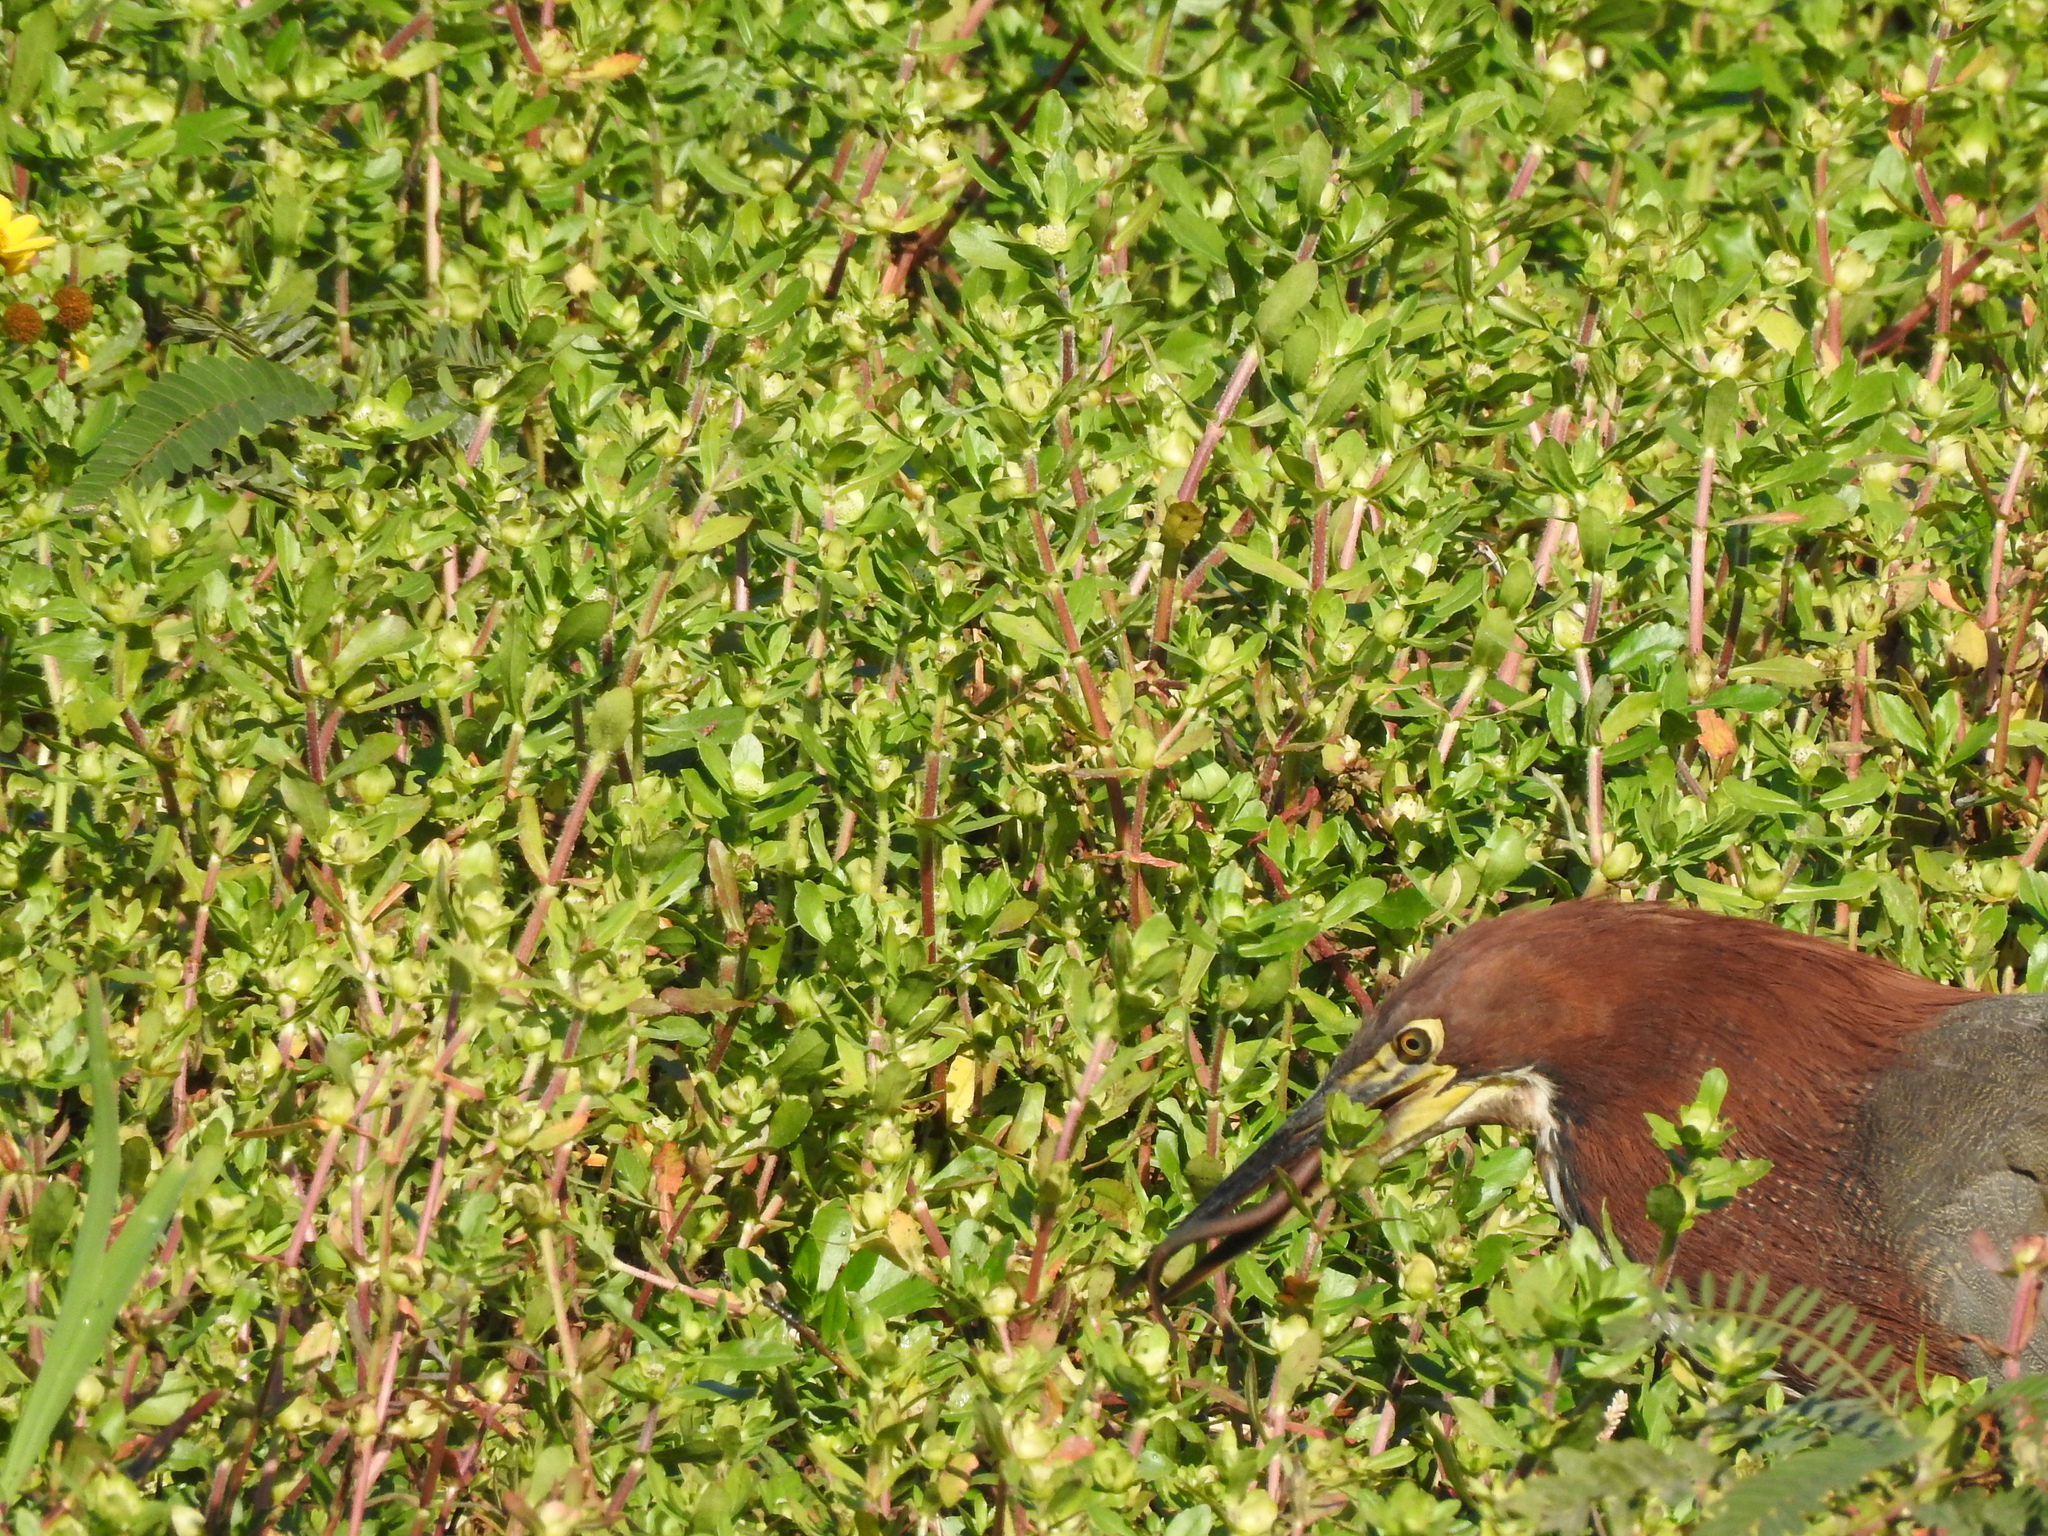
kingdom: Animalia
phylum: Chordata
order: Synbranchiformes
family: Synbranchidae
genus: Synbranchus
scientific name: Synbranchus marmoratus
